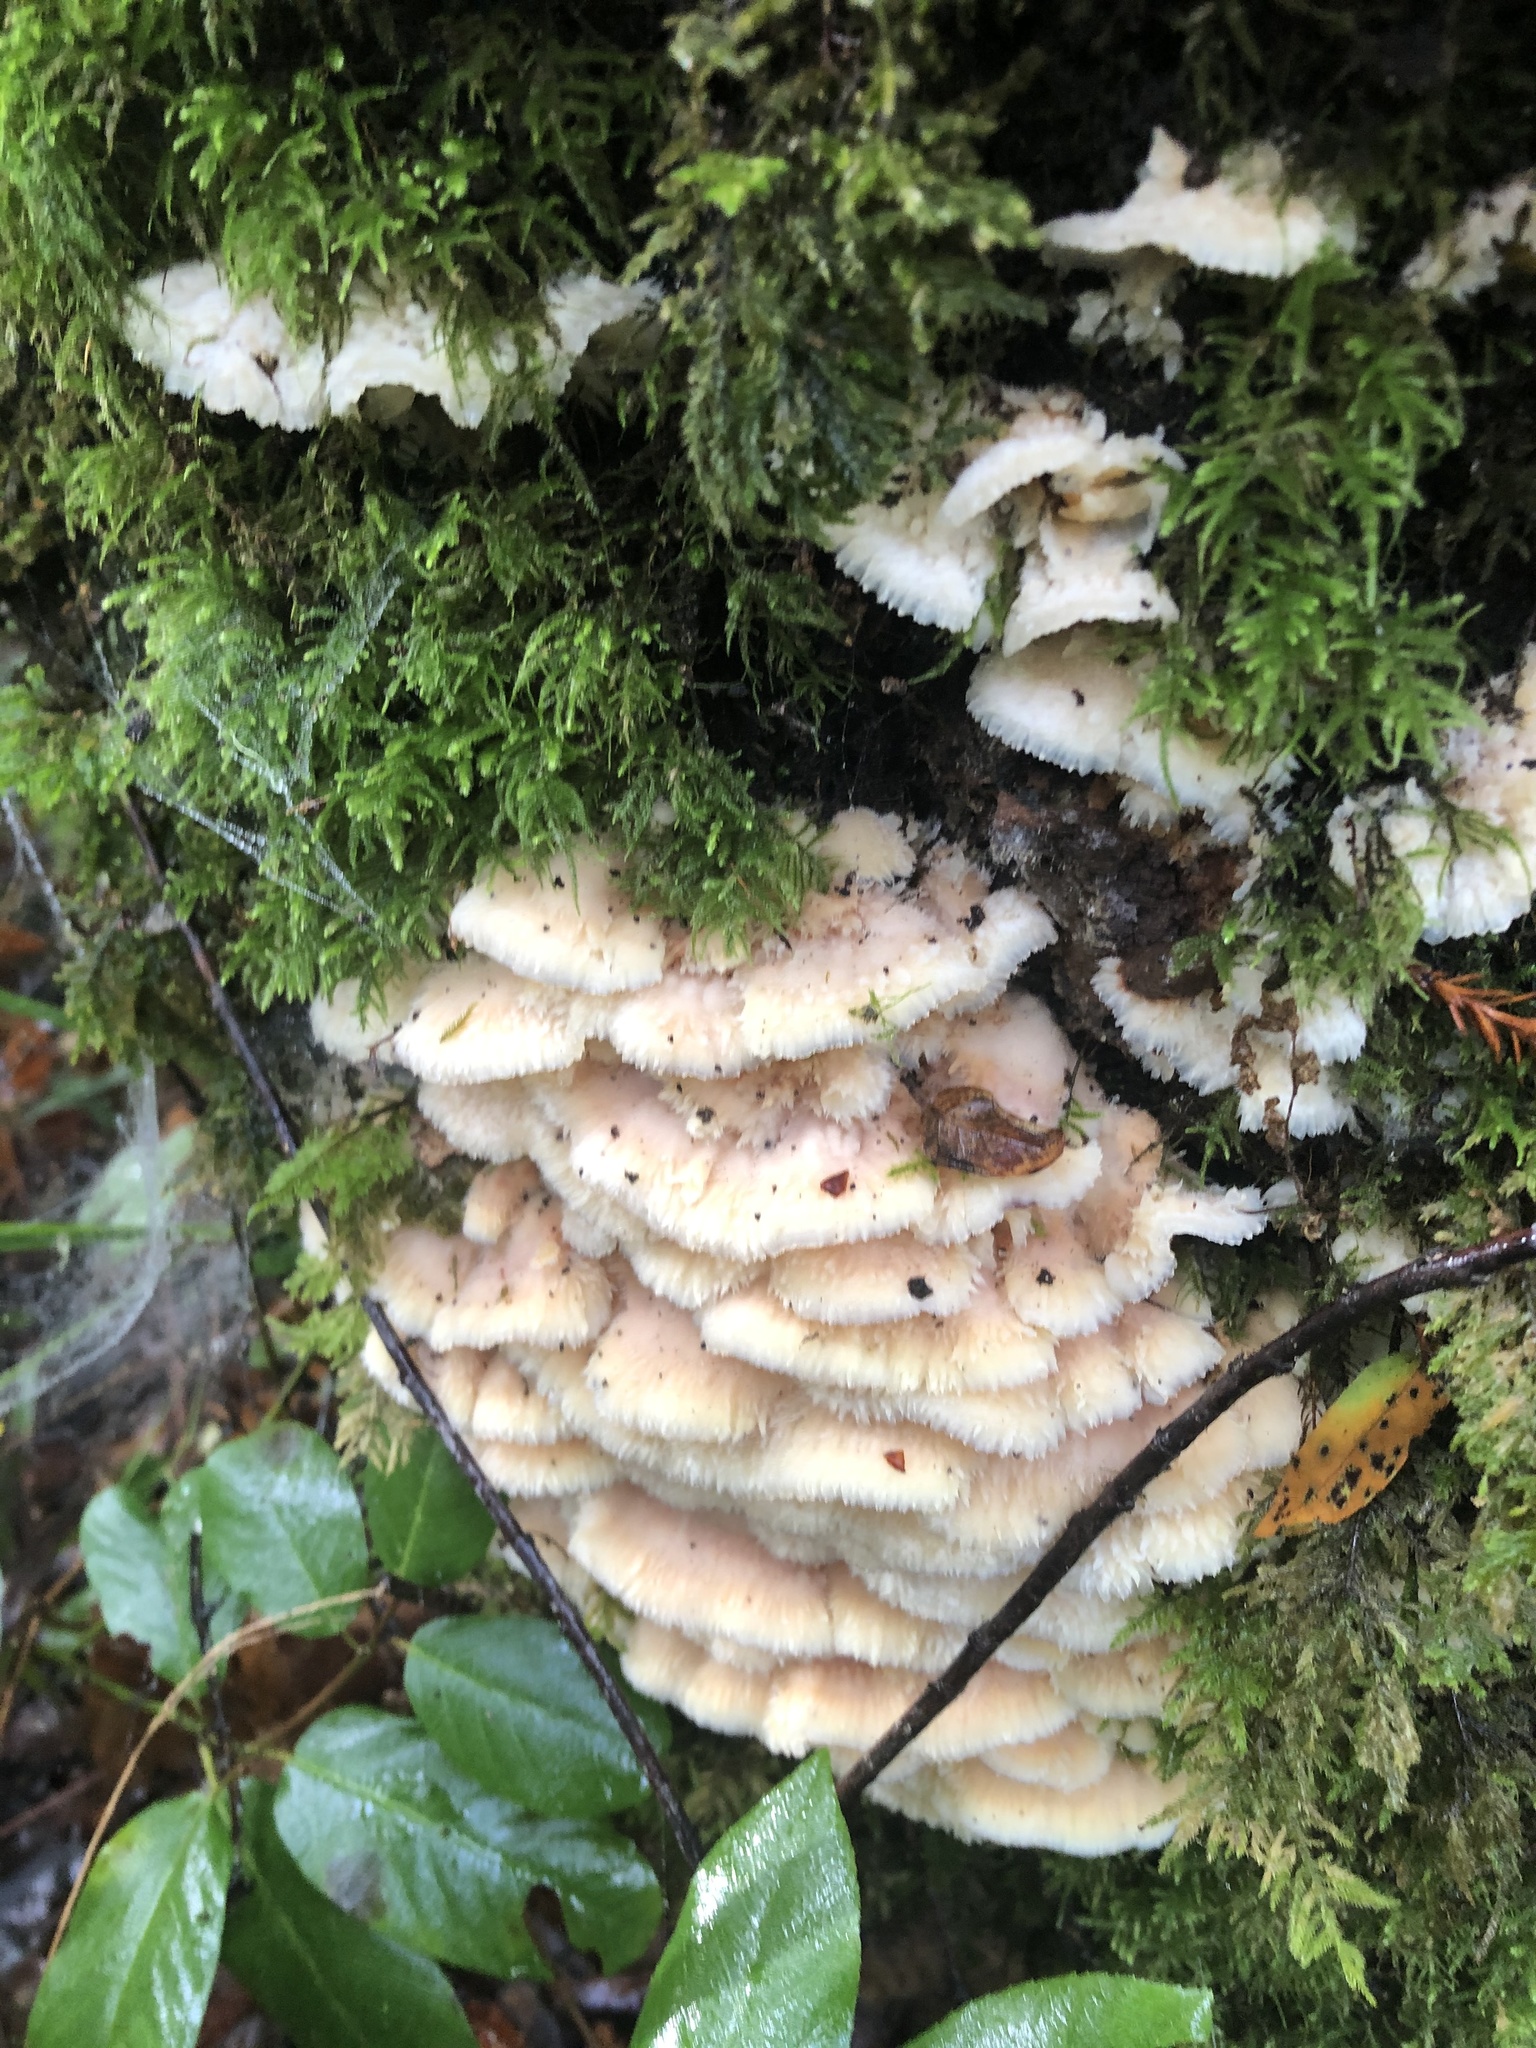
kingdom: Fungi
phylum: Basidiomycota
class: Agaricomycetes
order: Polyporales
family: Meruliaceae
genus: Phlebia
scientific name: Phlebia tremellosa
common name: Jelly rot
